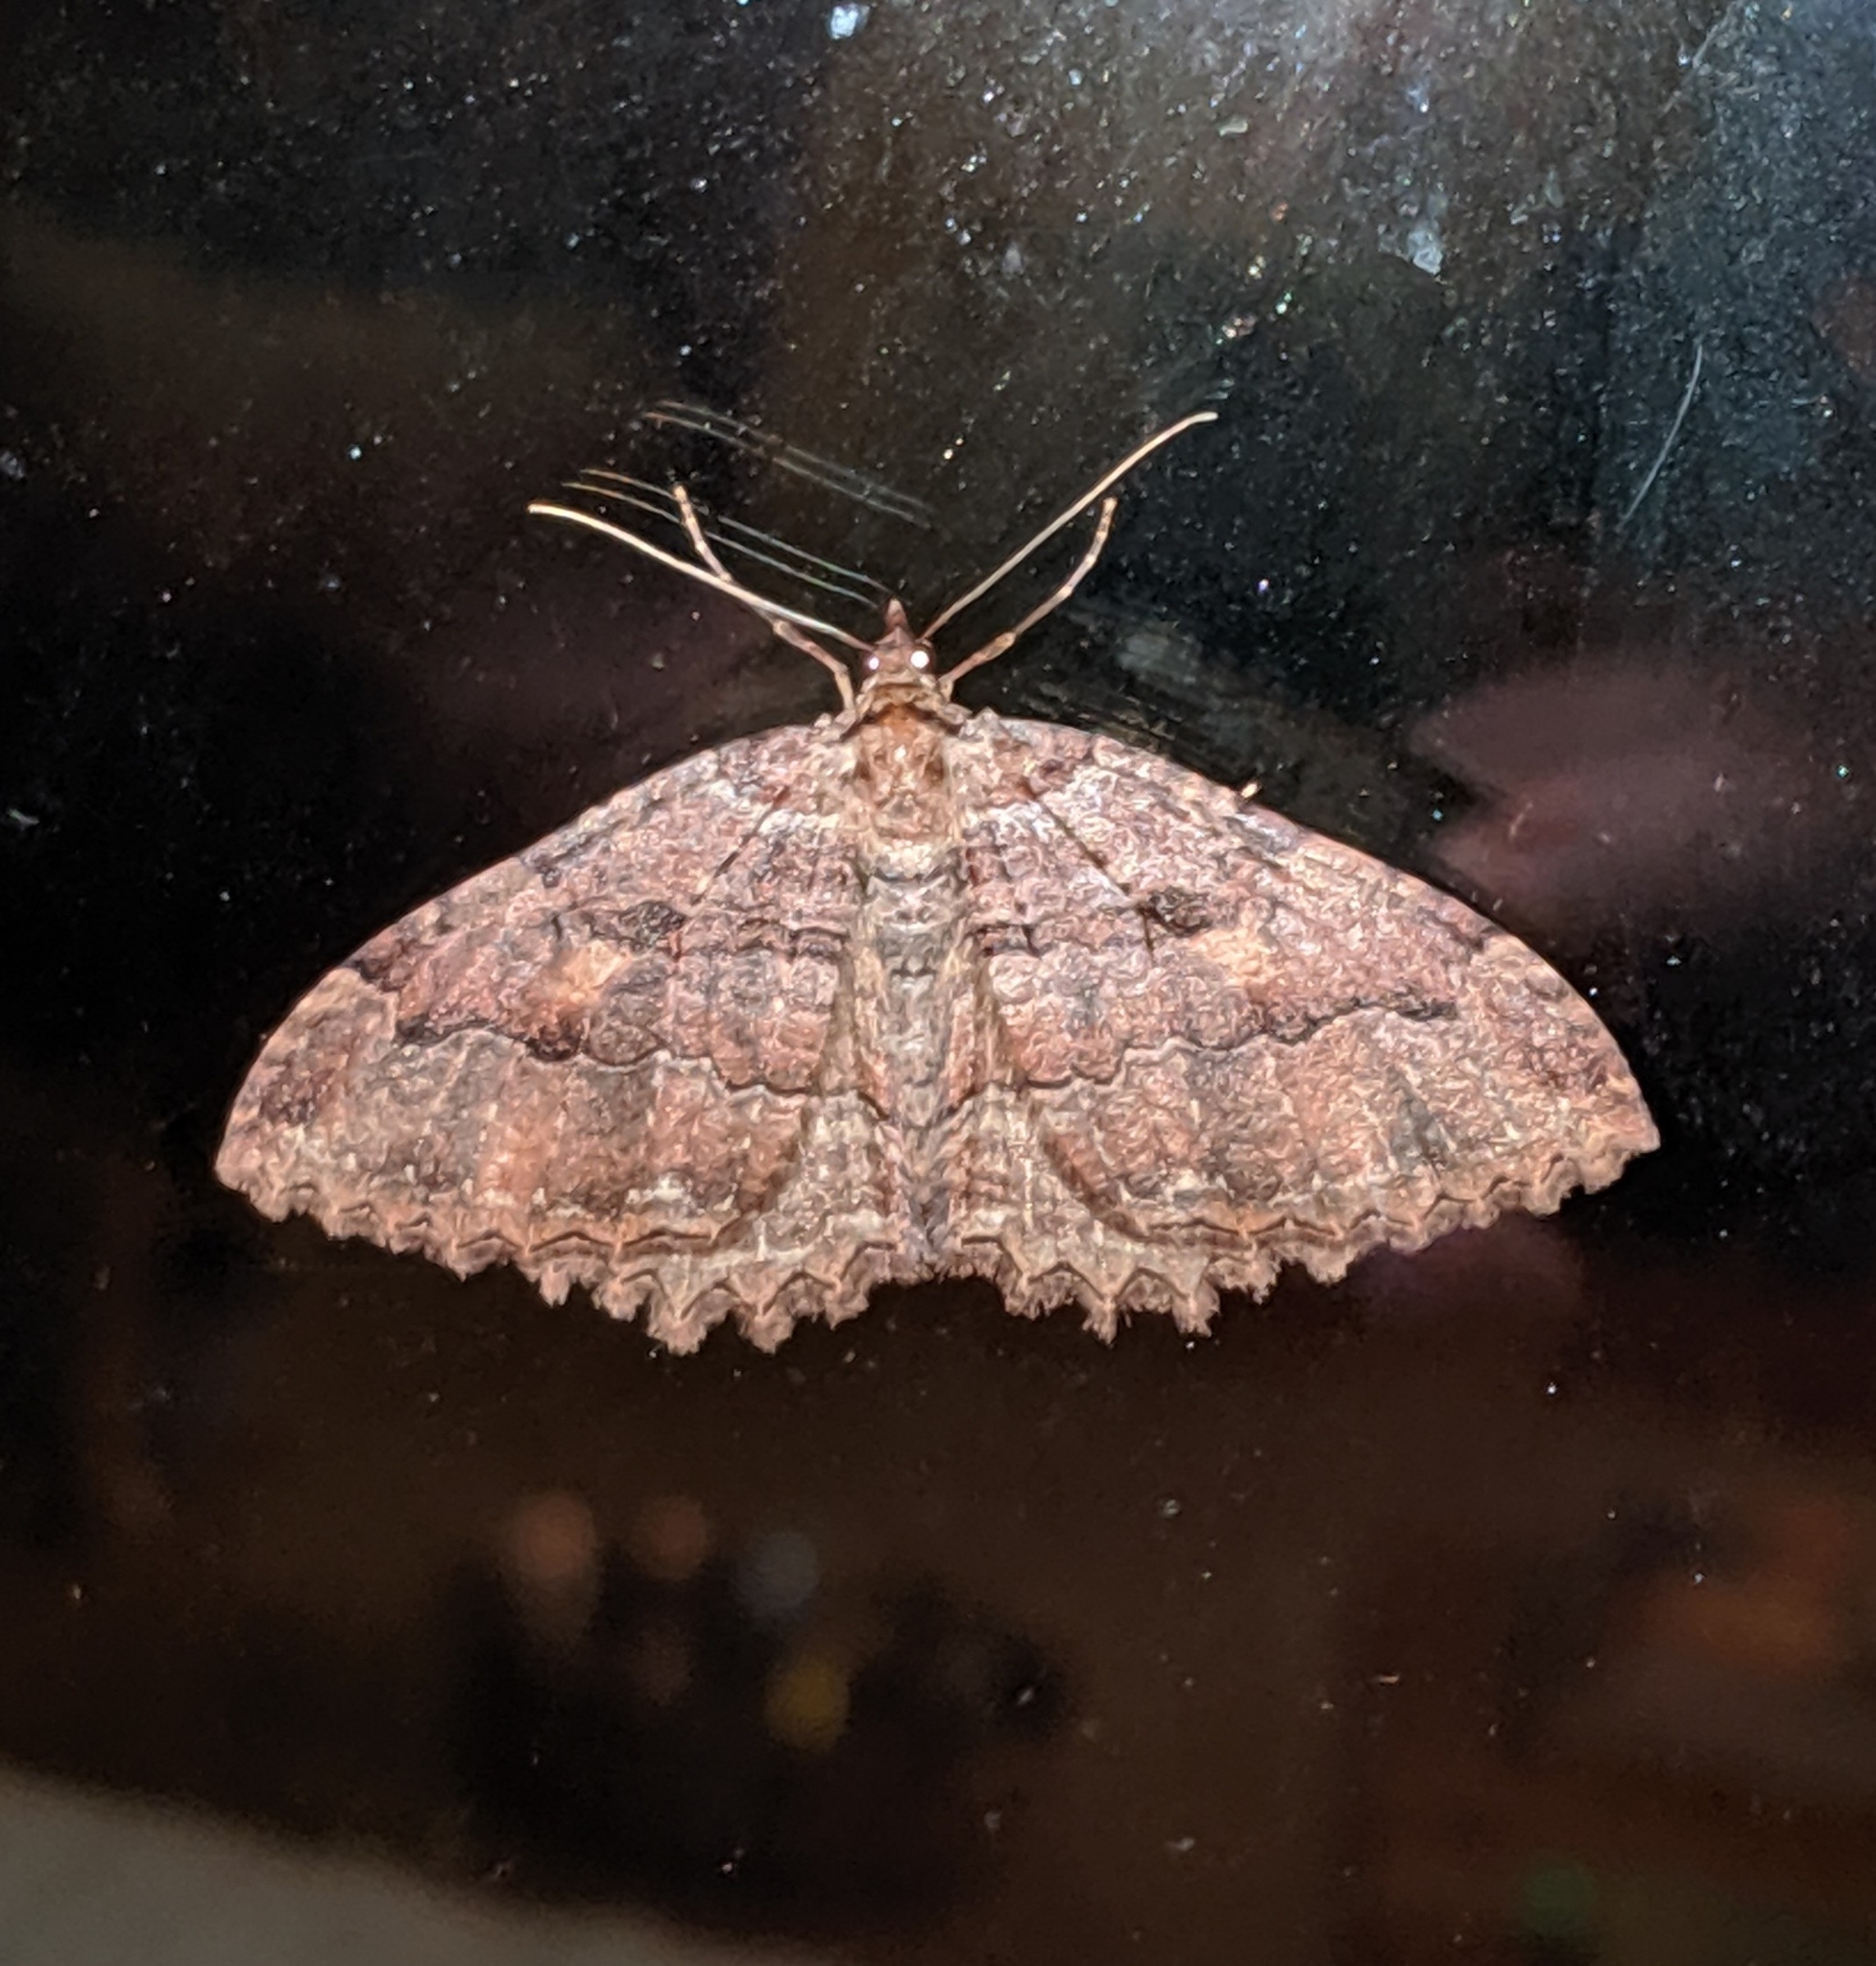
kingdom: Animalia
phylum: Arthropoda
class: Insecta
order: Lepidoptera
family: Geometridae
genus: Triphosa
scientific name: Triphosa haesitata
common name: Tissue moth
